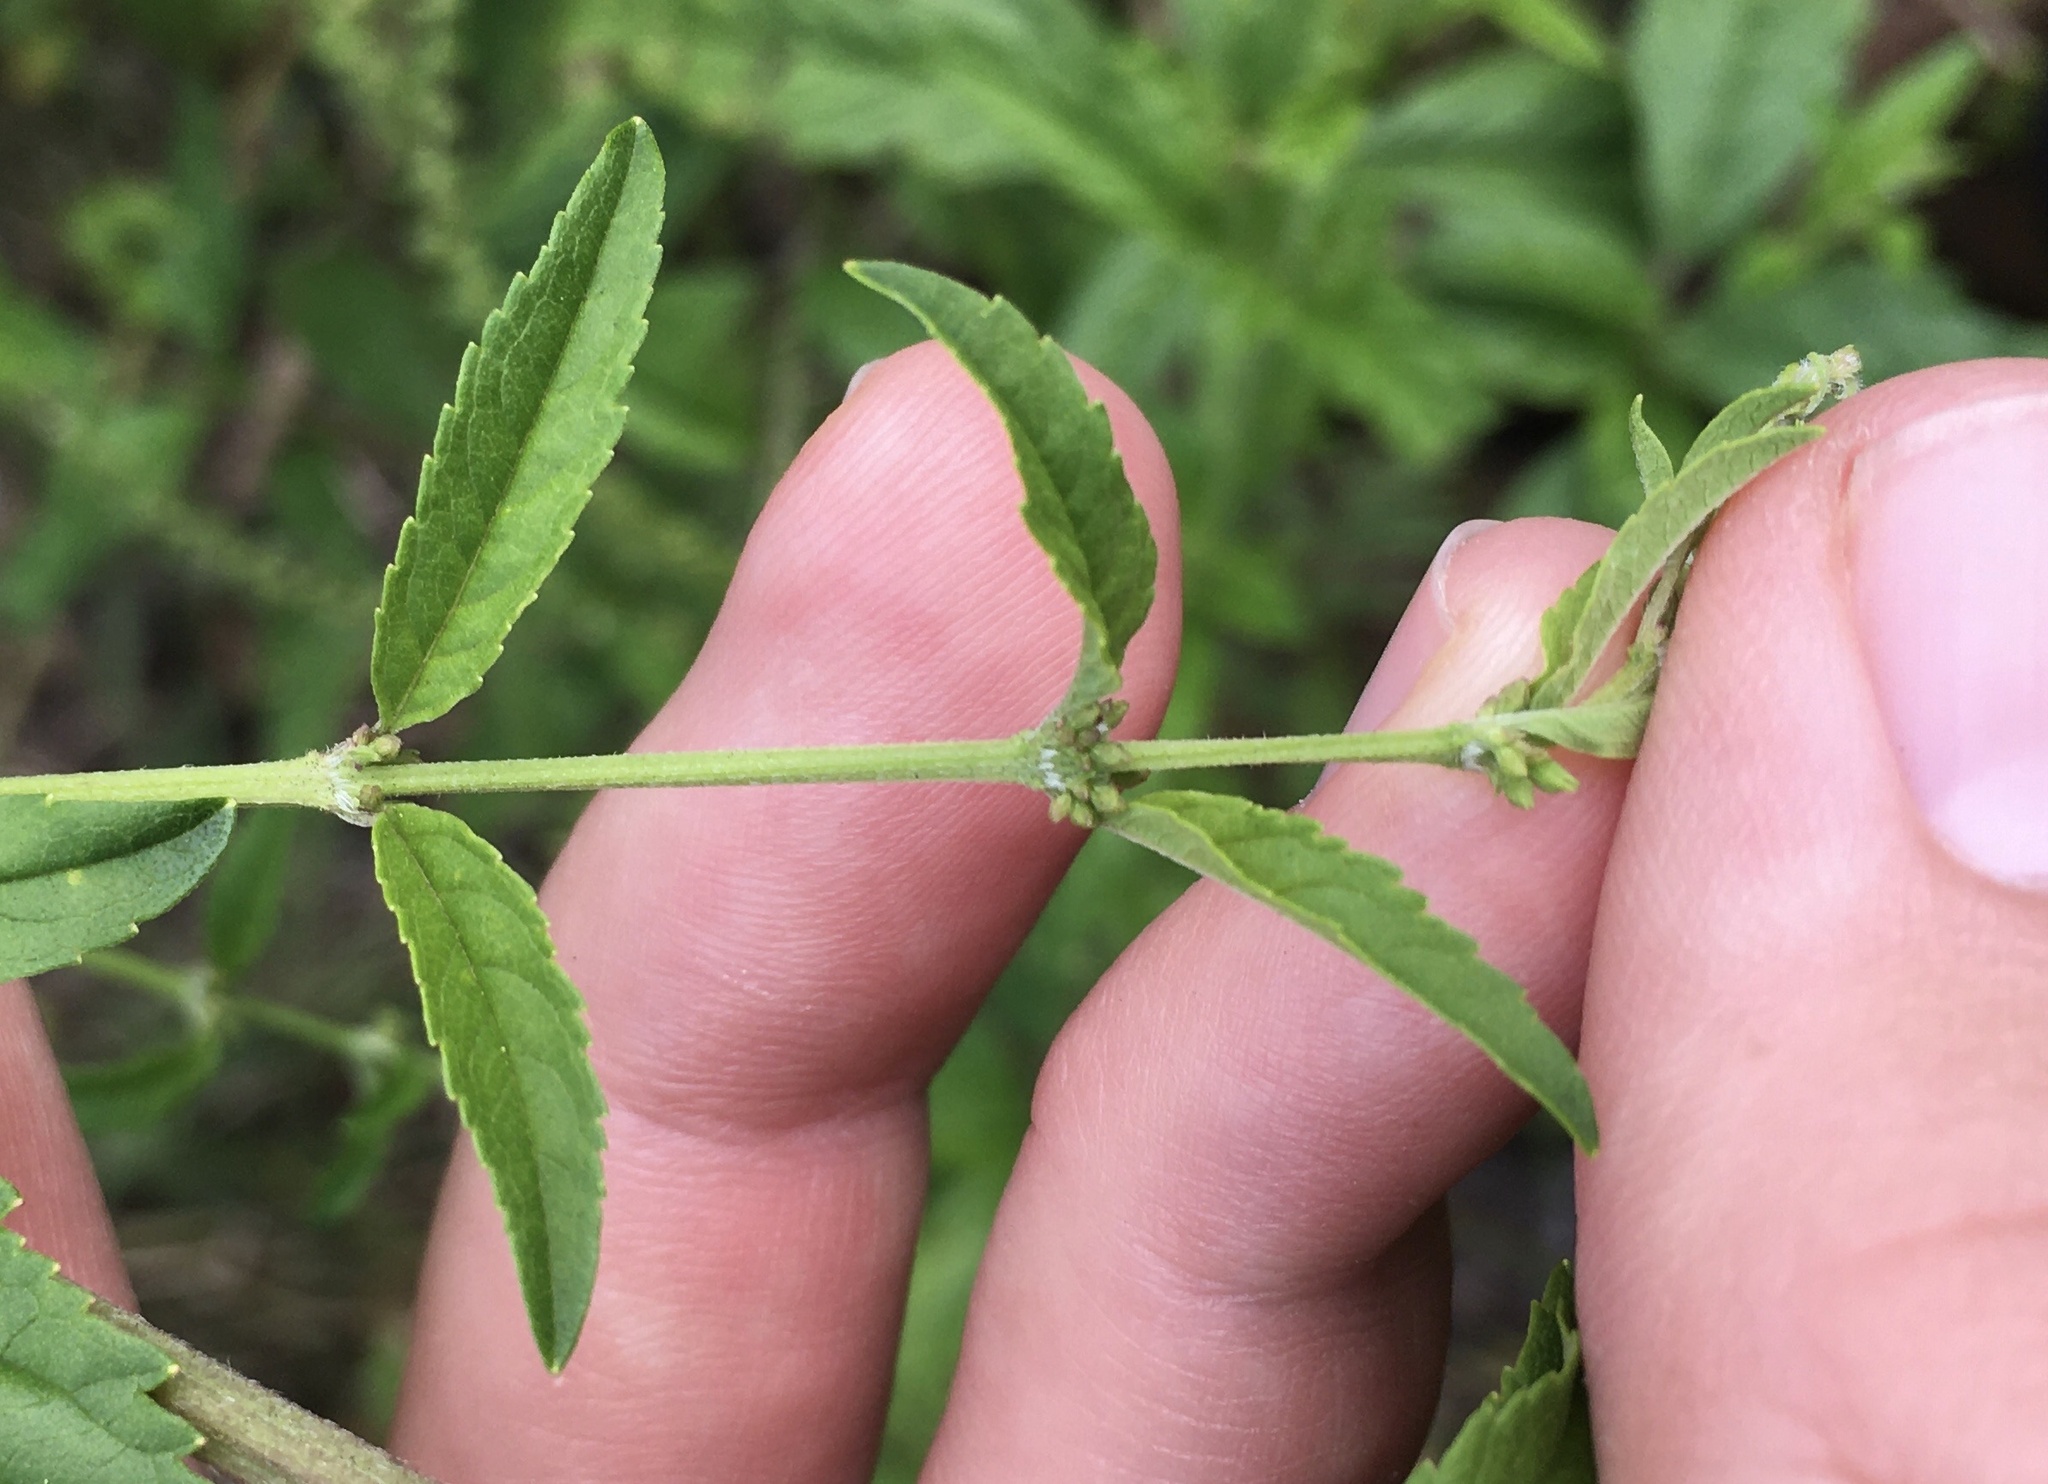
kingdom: Plantae
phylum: Tracheophyta
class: Magnoliopsida
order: Lamiales
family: Lamiaceae
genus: Condea
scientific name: Condea verticillata
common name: John charles
